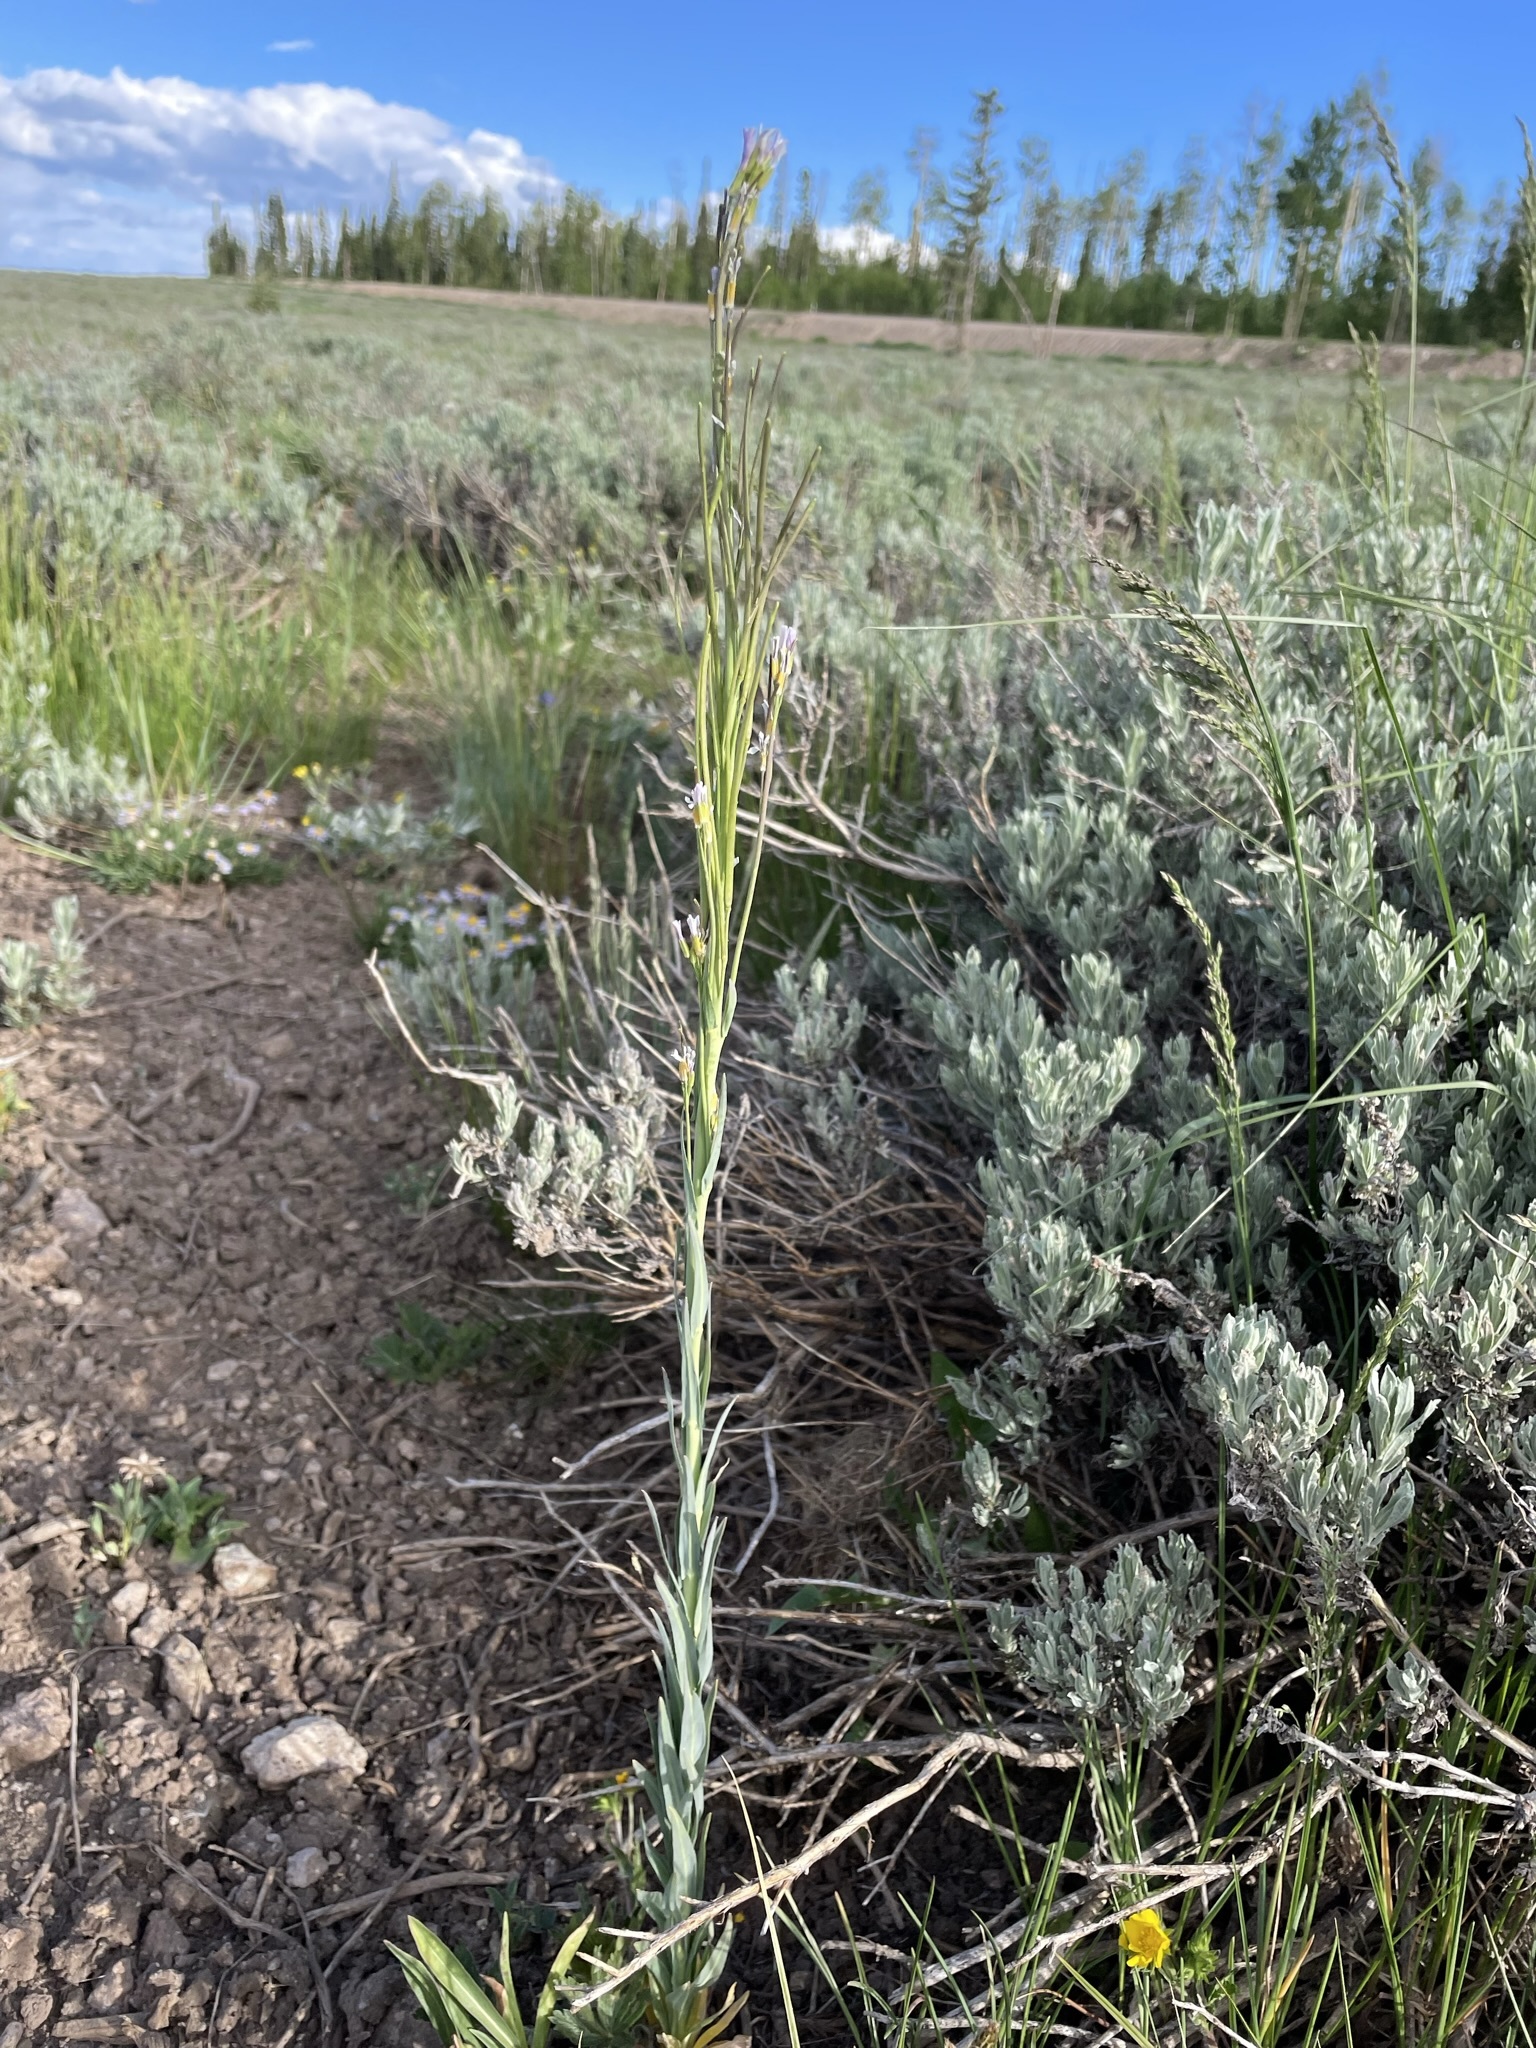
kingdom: Plantae
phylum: Tracheophyta
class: Magnoliopsida
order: Brassicales
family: Brassicaceae
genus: Turritis
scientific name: Turritis glabra
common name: Tower rockcress
